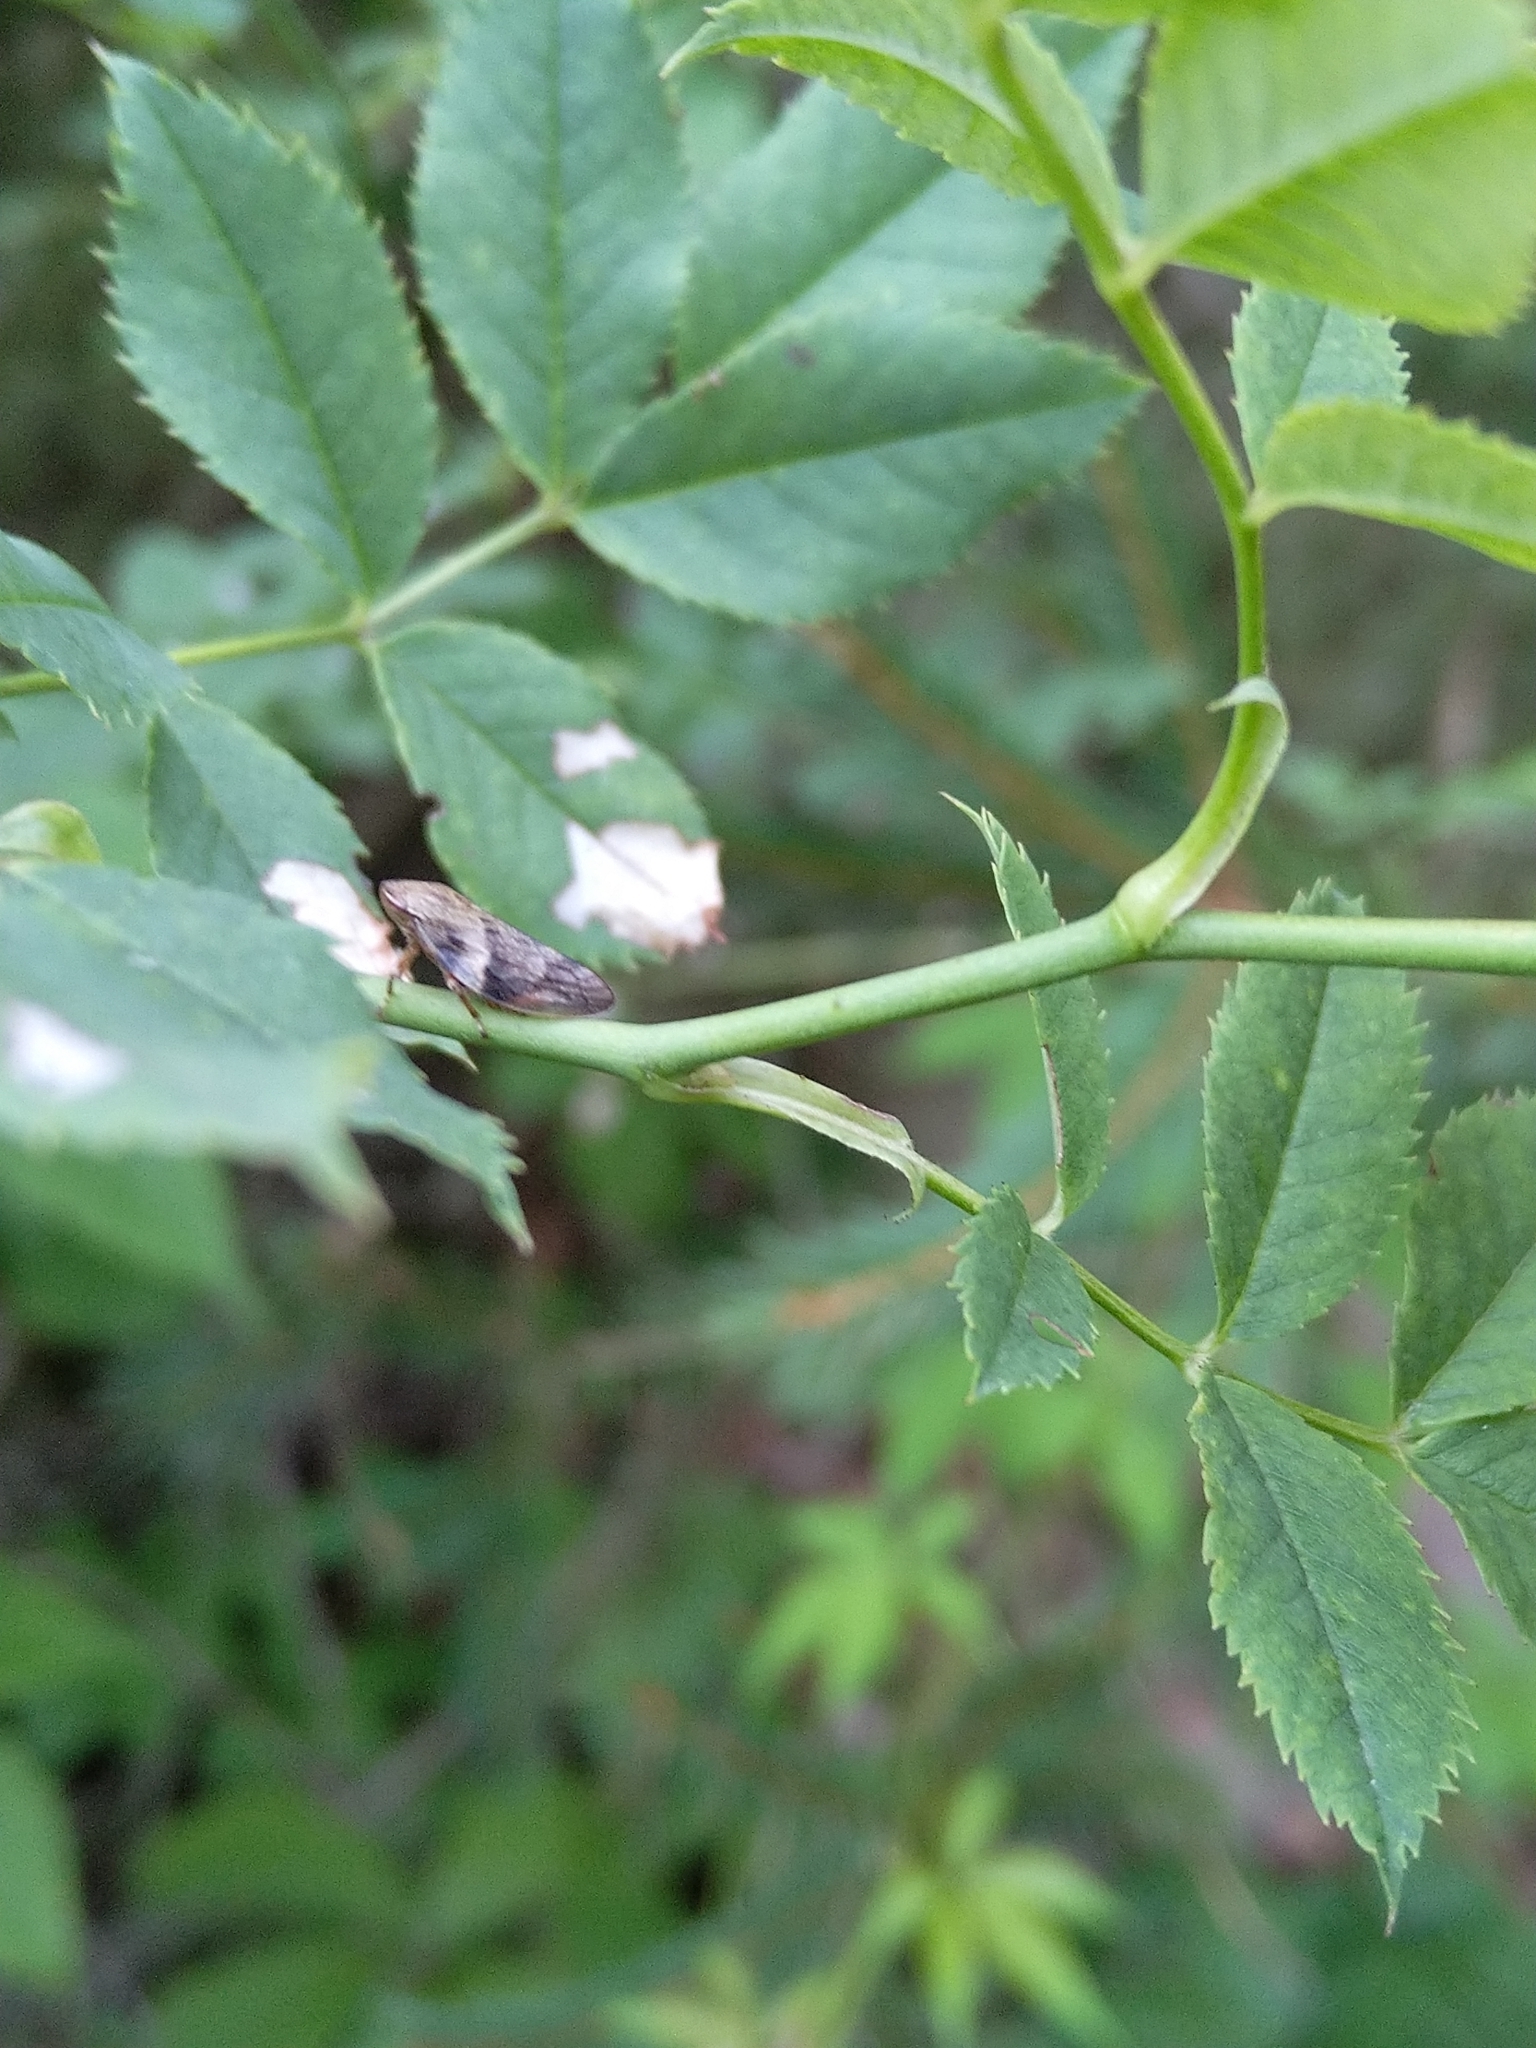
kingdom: Animalia
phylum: Arthropoda
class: Insecta
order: Hemiptera
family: Aphrophoridae
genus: Aphrophora
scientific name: Aphrophora alni
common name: European alder spittlebug
